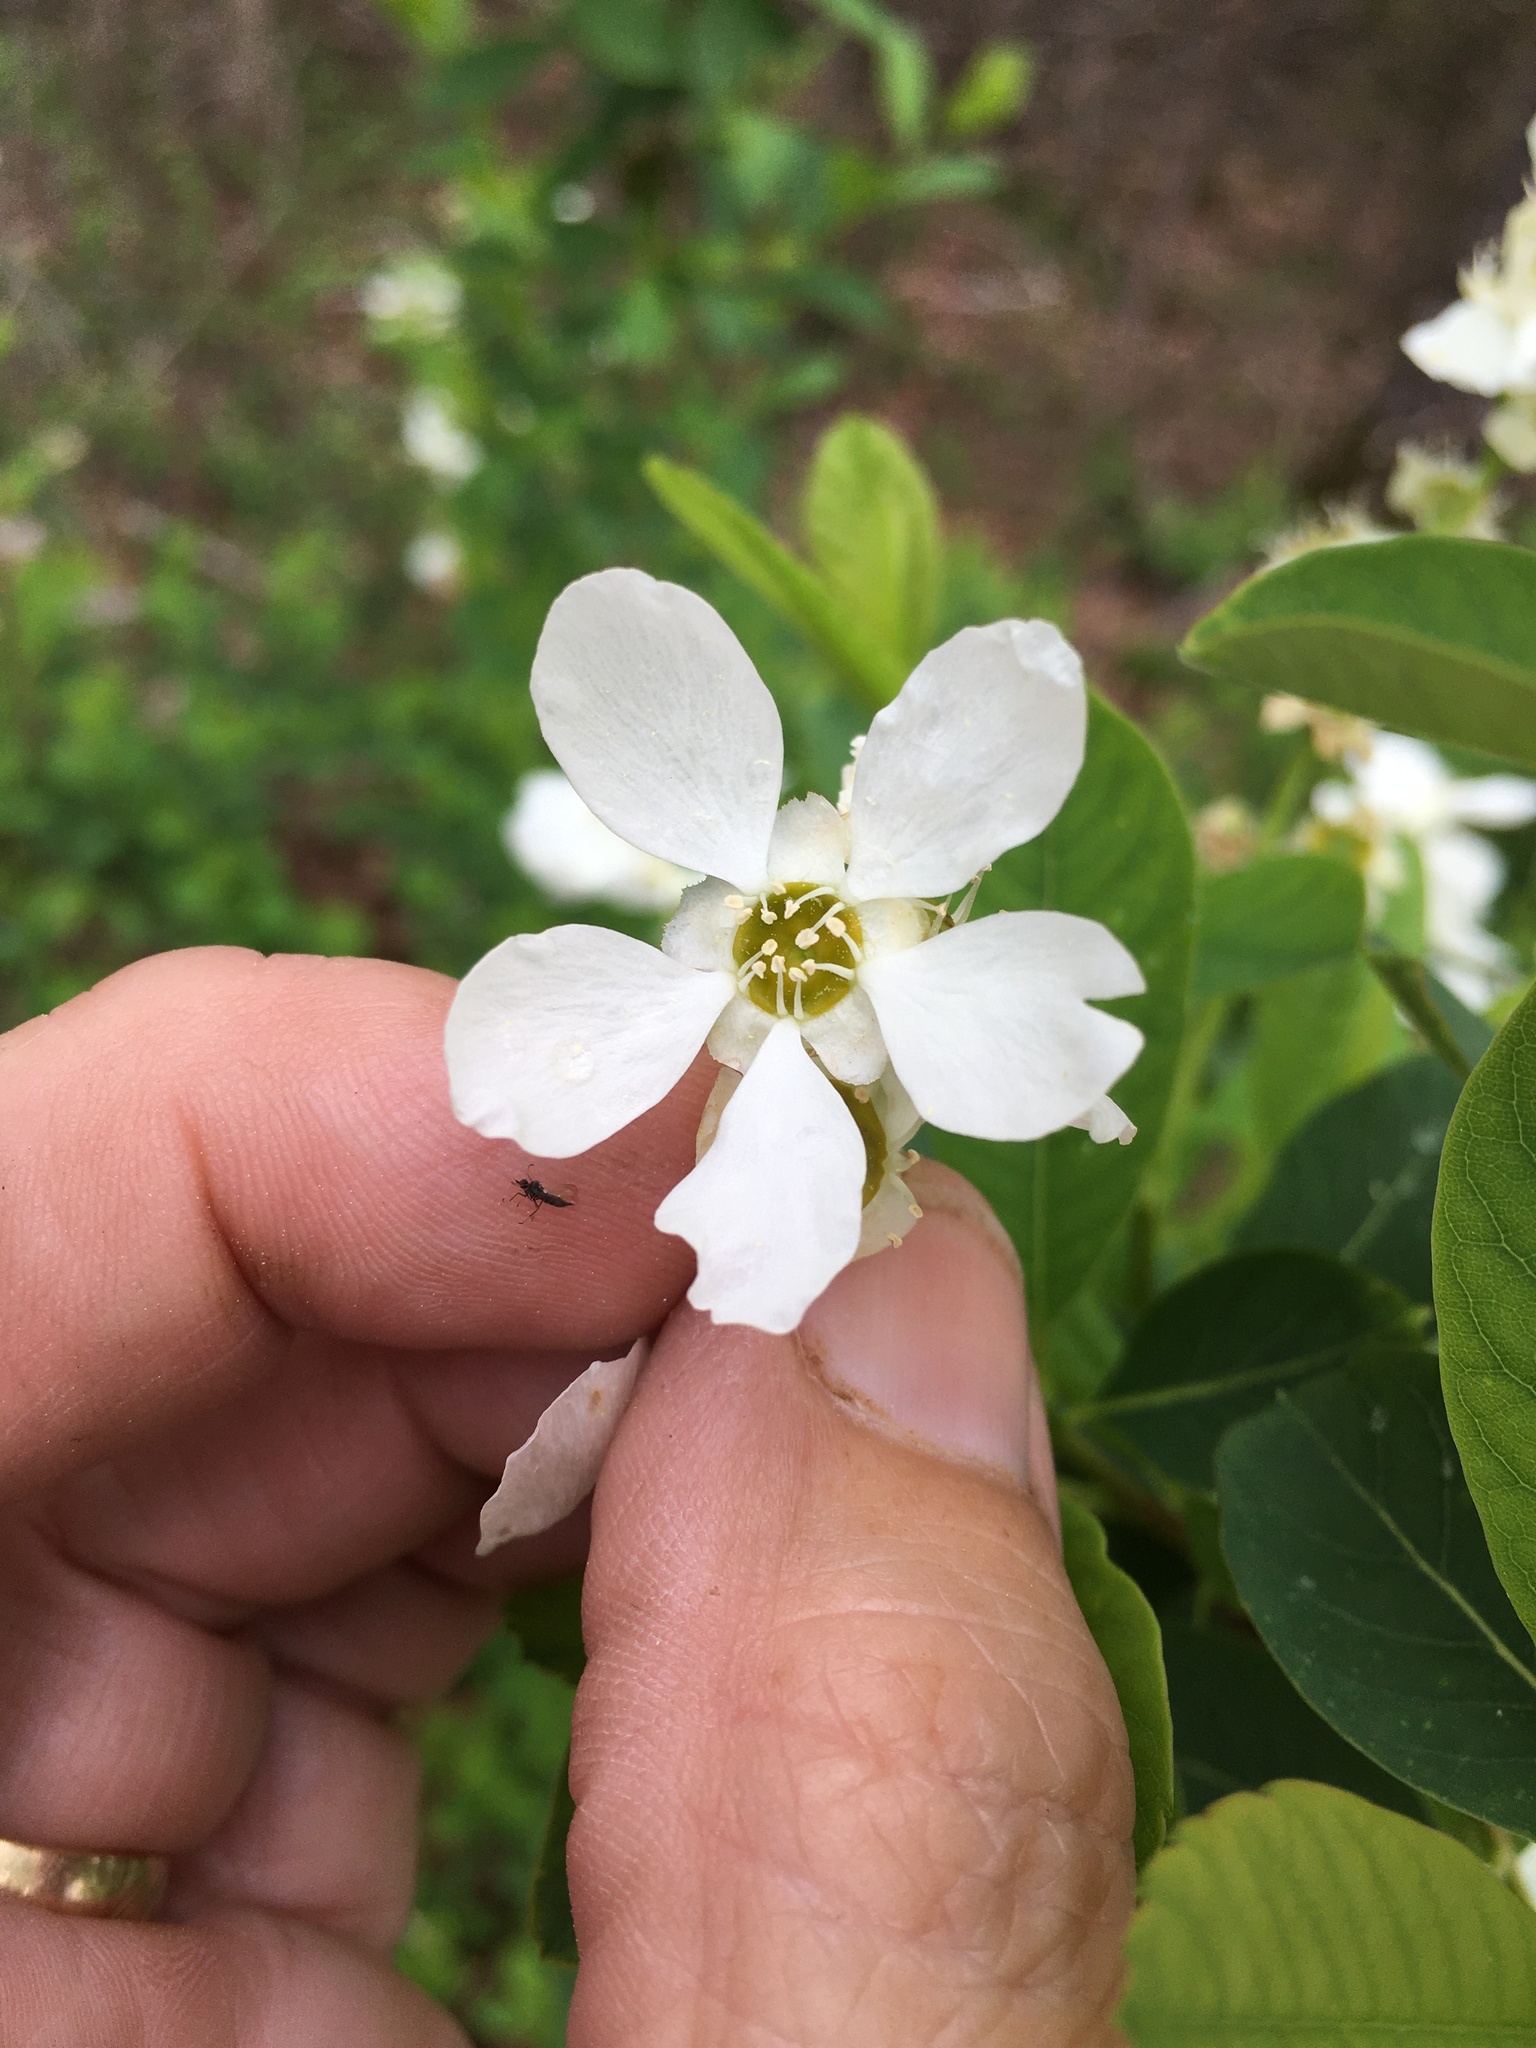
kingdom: Plantae
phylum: Tracheophyta
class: Magnoliopsida
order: Rosales
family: Rosaceae
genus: Exochorda
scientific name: Exochorda racemosa
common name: Common pearlbrush
